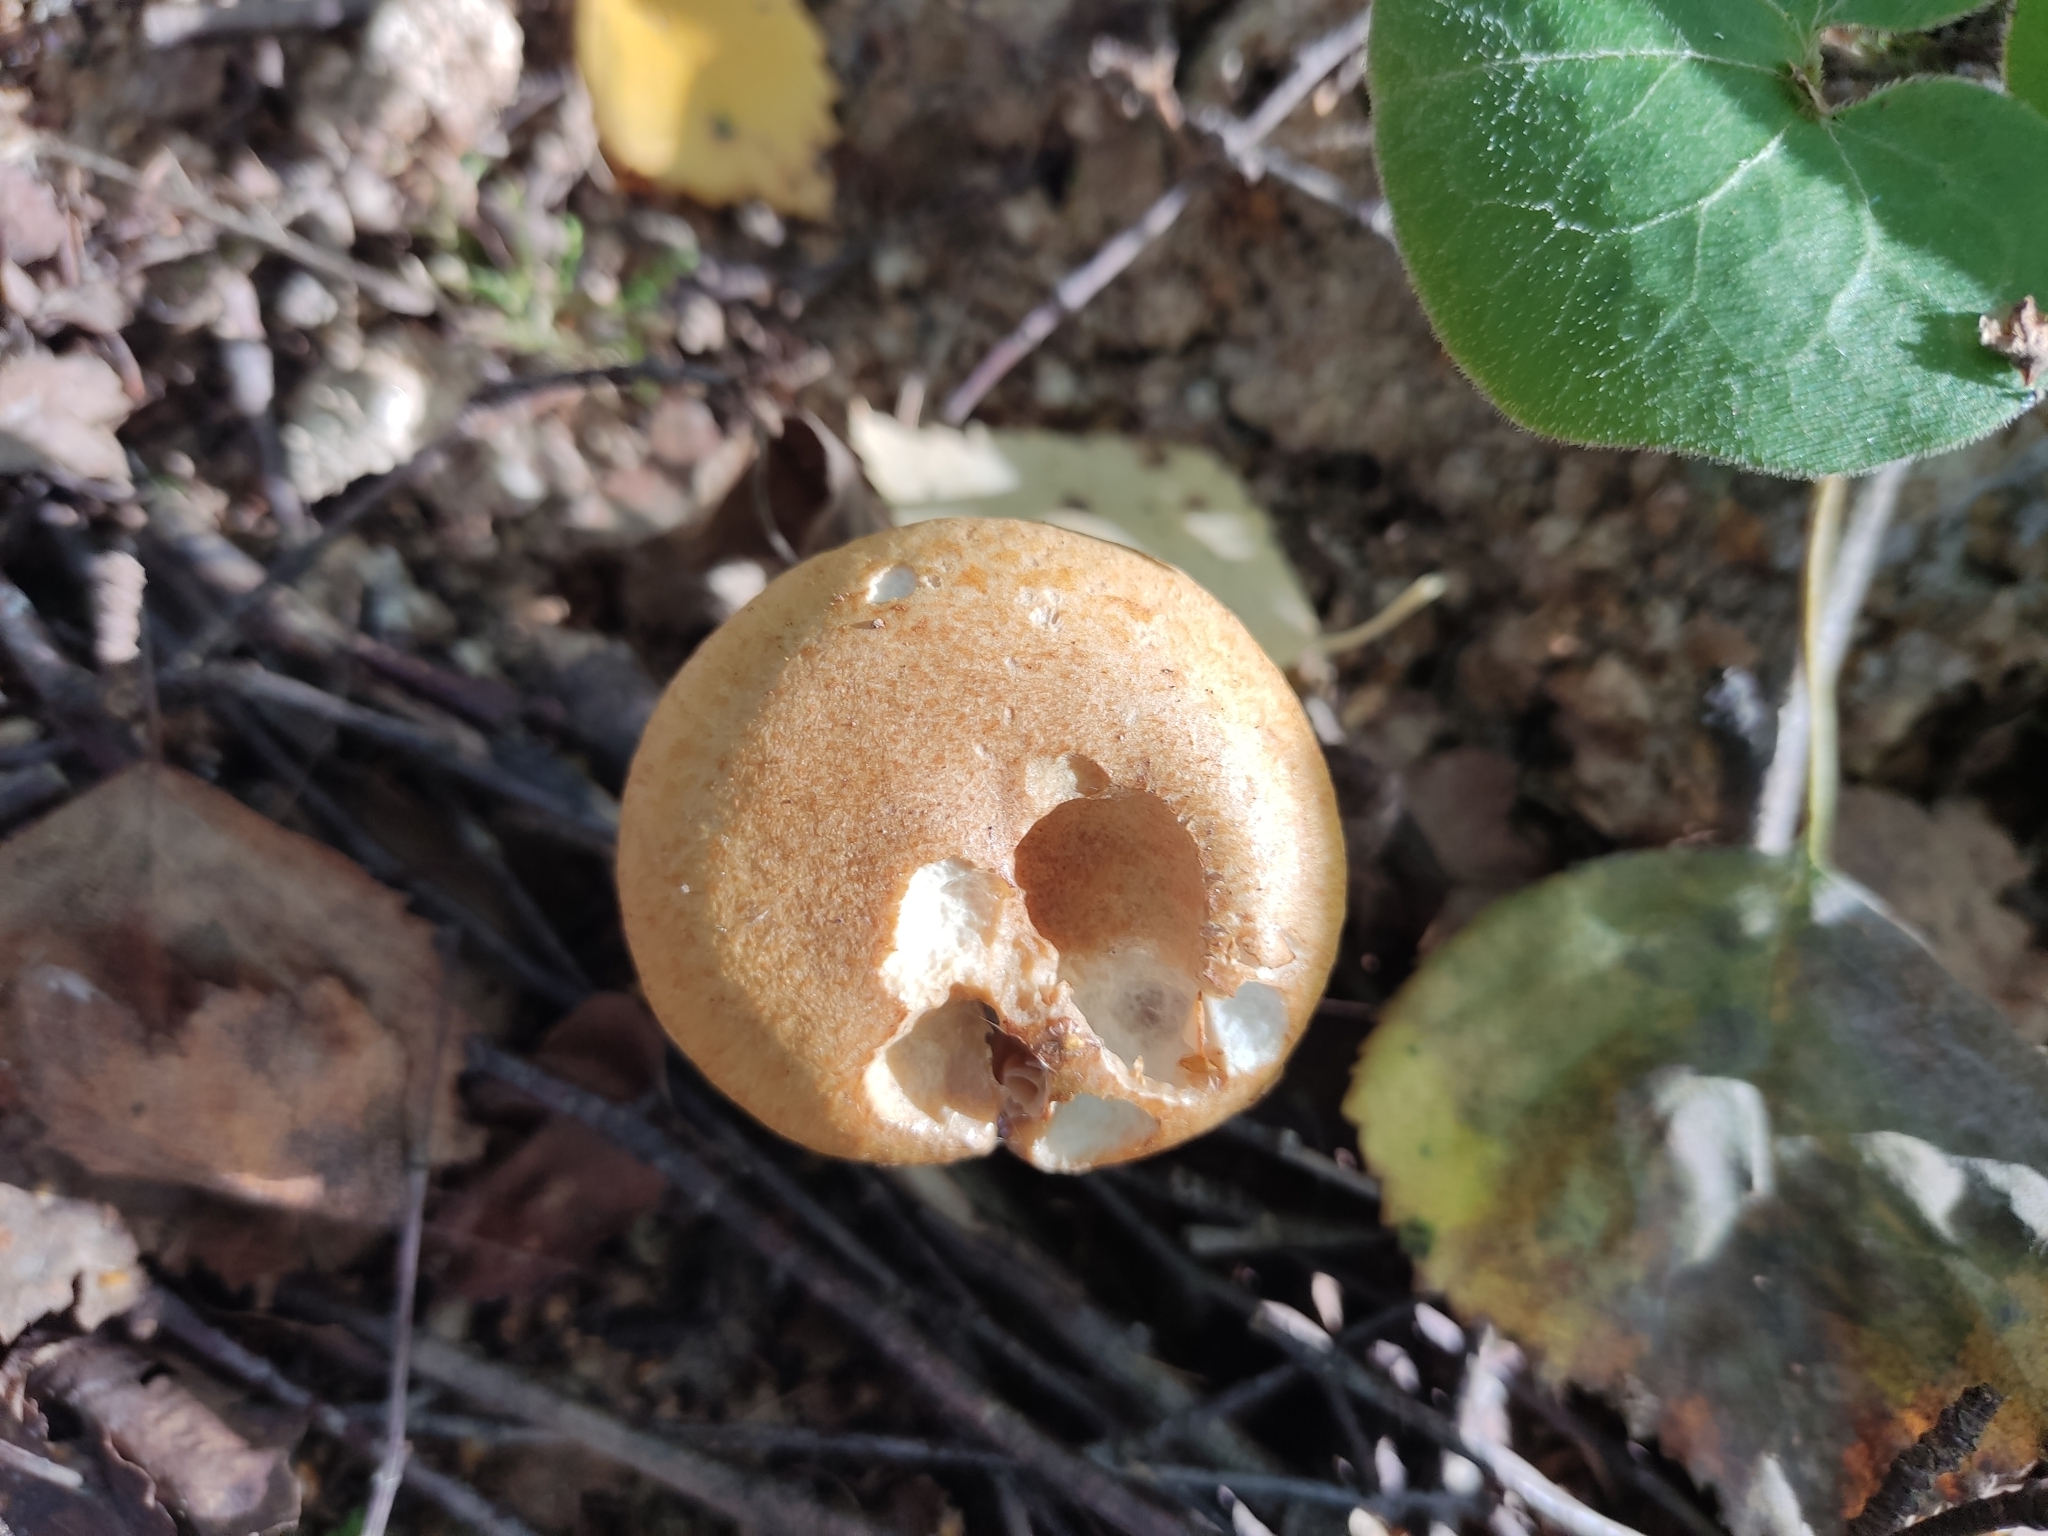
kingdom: Fungi
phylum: Basidiomycota
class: Agaricomycetes
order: Agaricales
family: Cortinariaceae
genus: Cortinarius
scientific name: Cortinarius armillatus
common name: Red banded webcap
